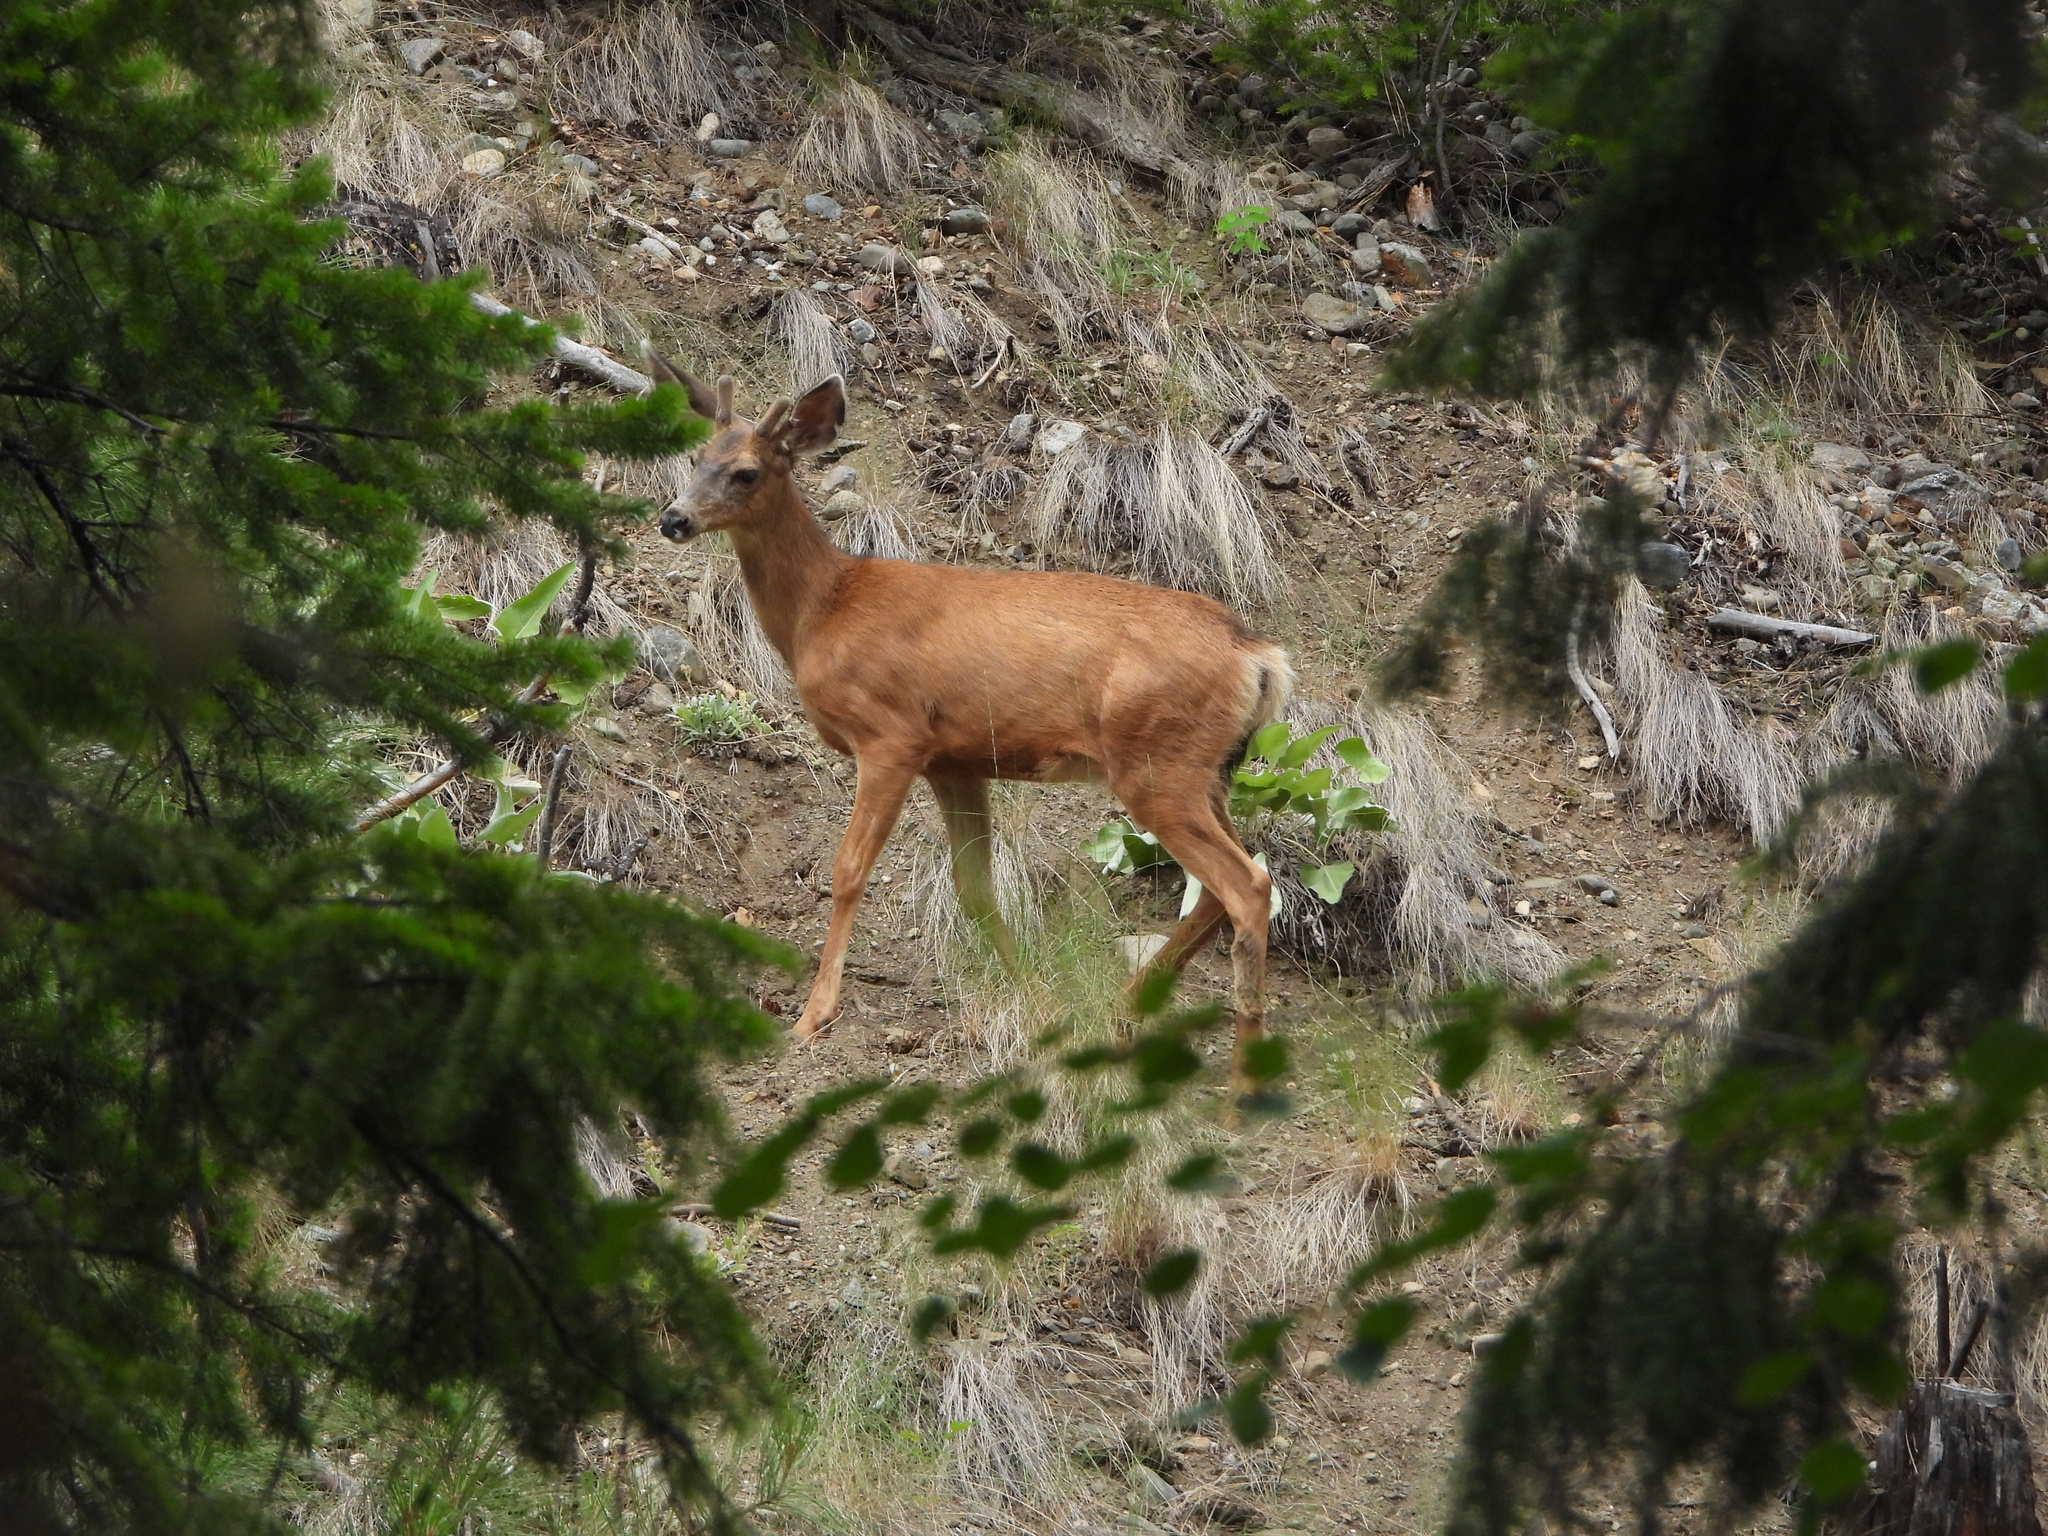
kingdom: Animalia
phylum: Chordata
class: Mammalia
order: Artiodactyla
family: Cervidae
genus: Odocoileus
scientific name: Odocoileus hemionus
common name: Mule deer
